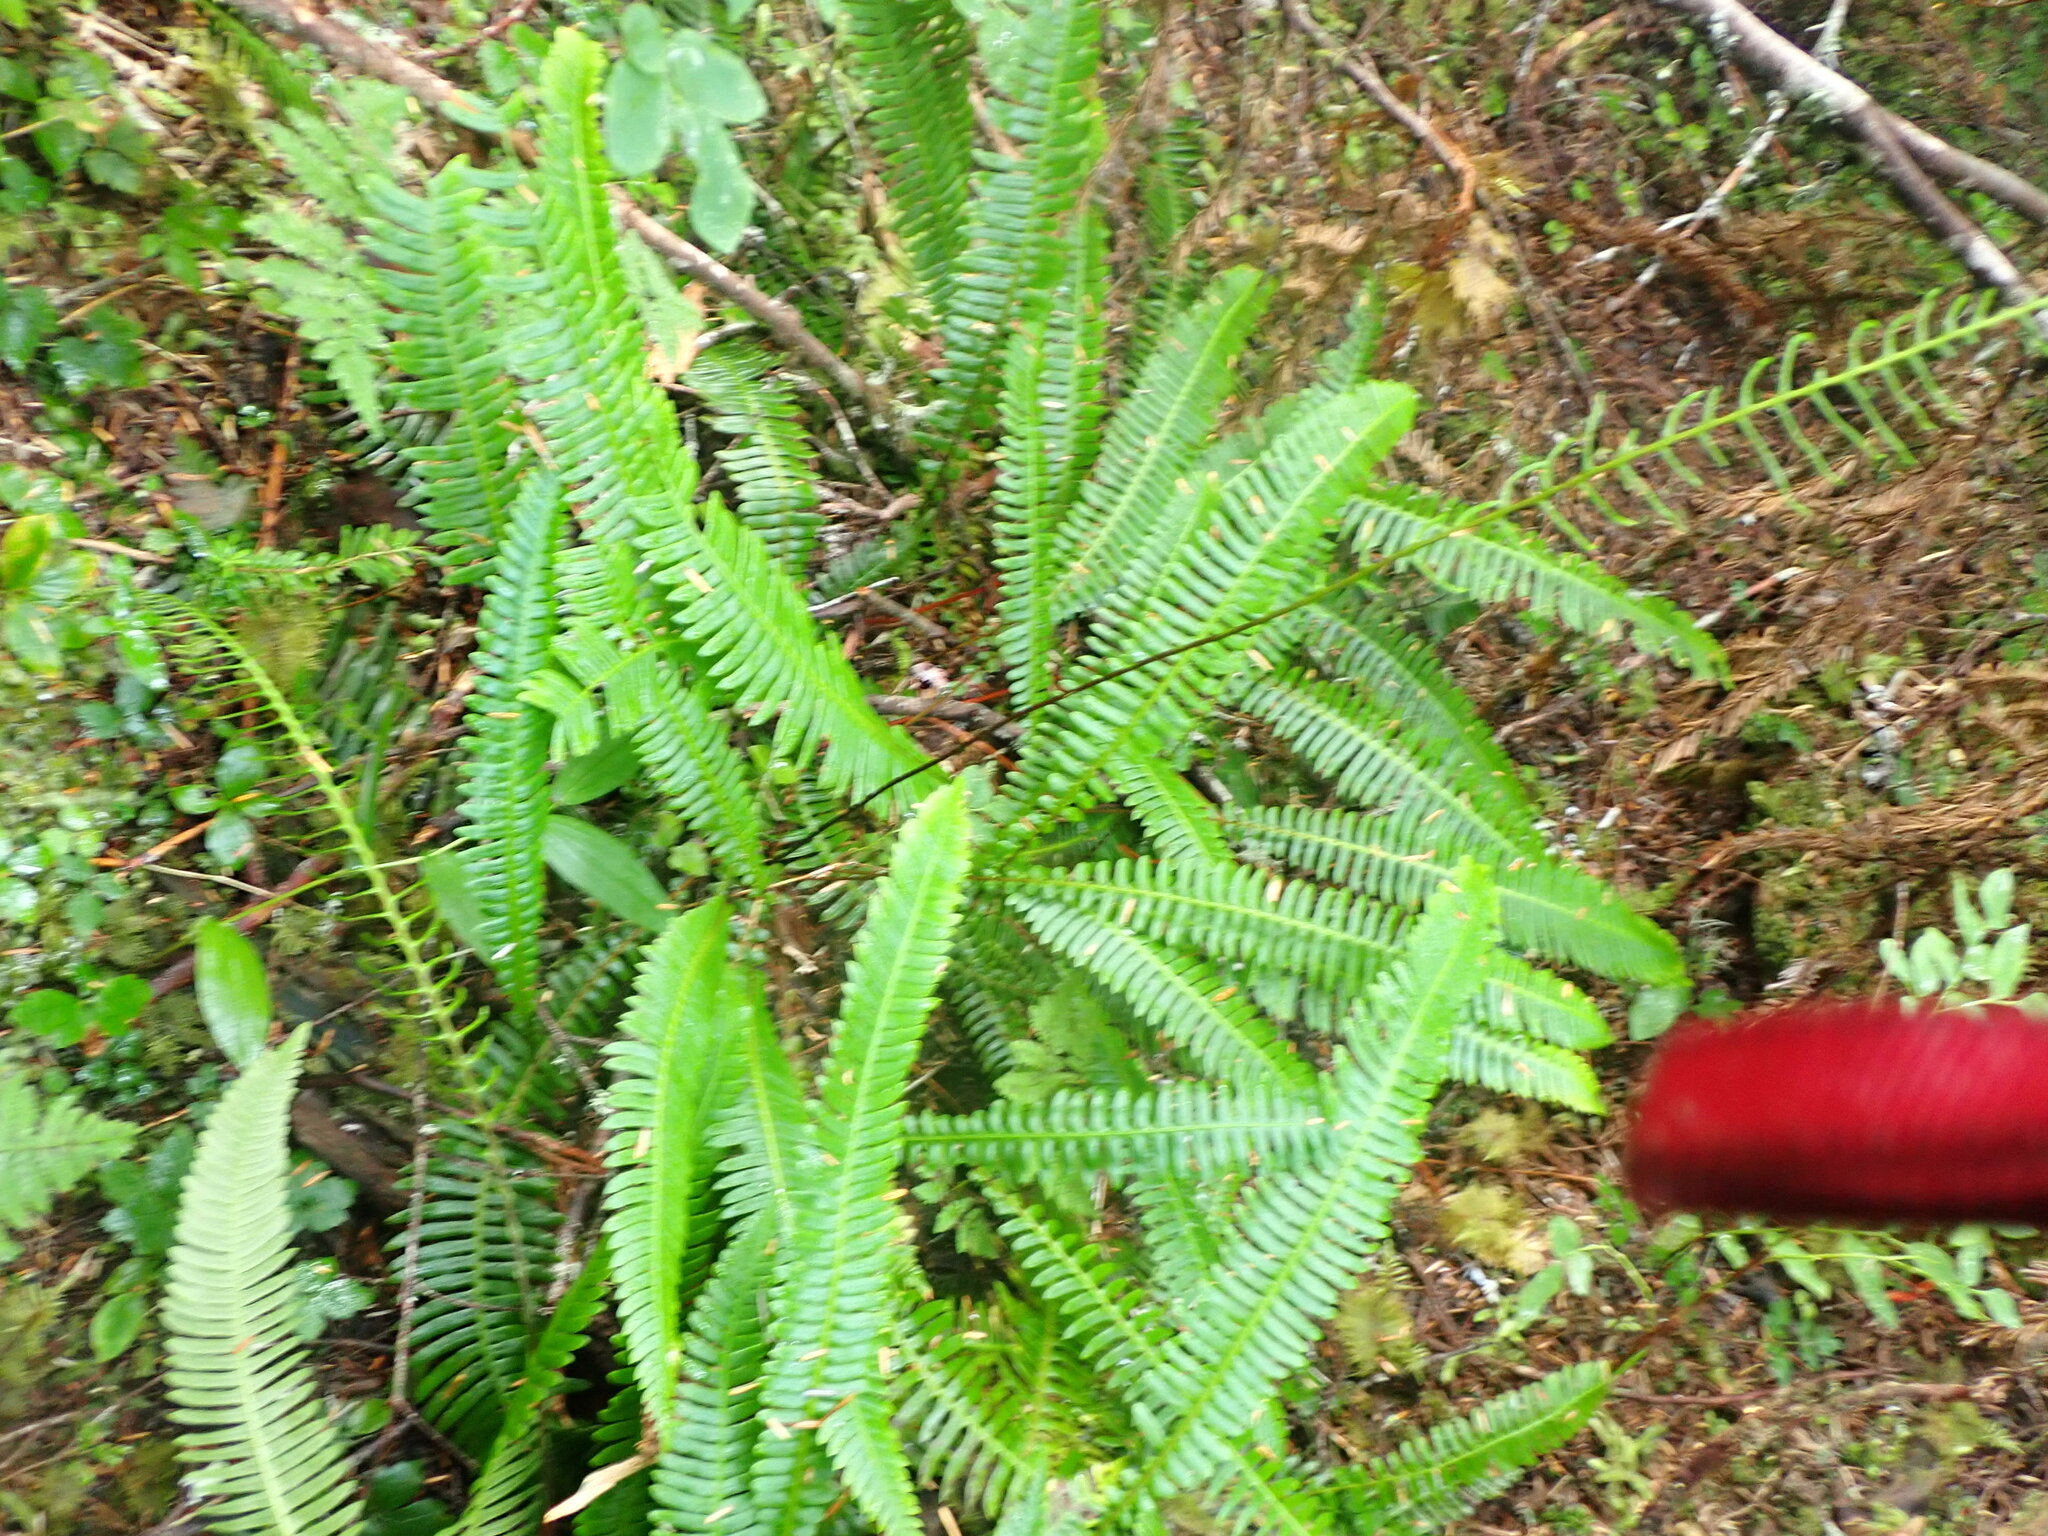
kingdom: Plantae
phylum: Tracheophyta
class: Polypodiopsida
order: Polypodiales
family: Blechnaceae
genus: Struthiopteris
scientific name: Struthiopteris spicant
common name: Deer fern
